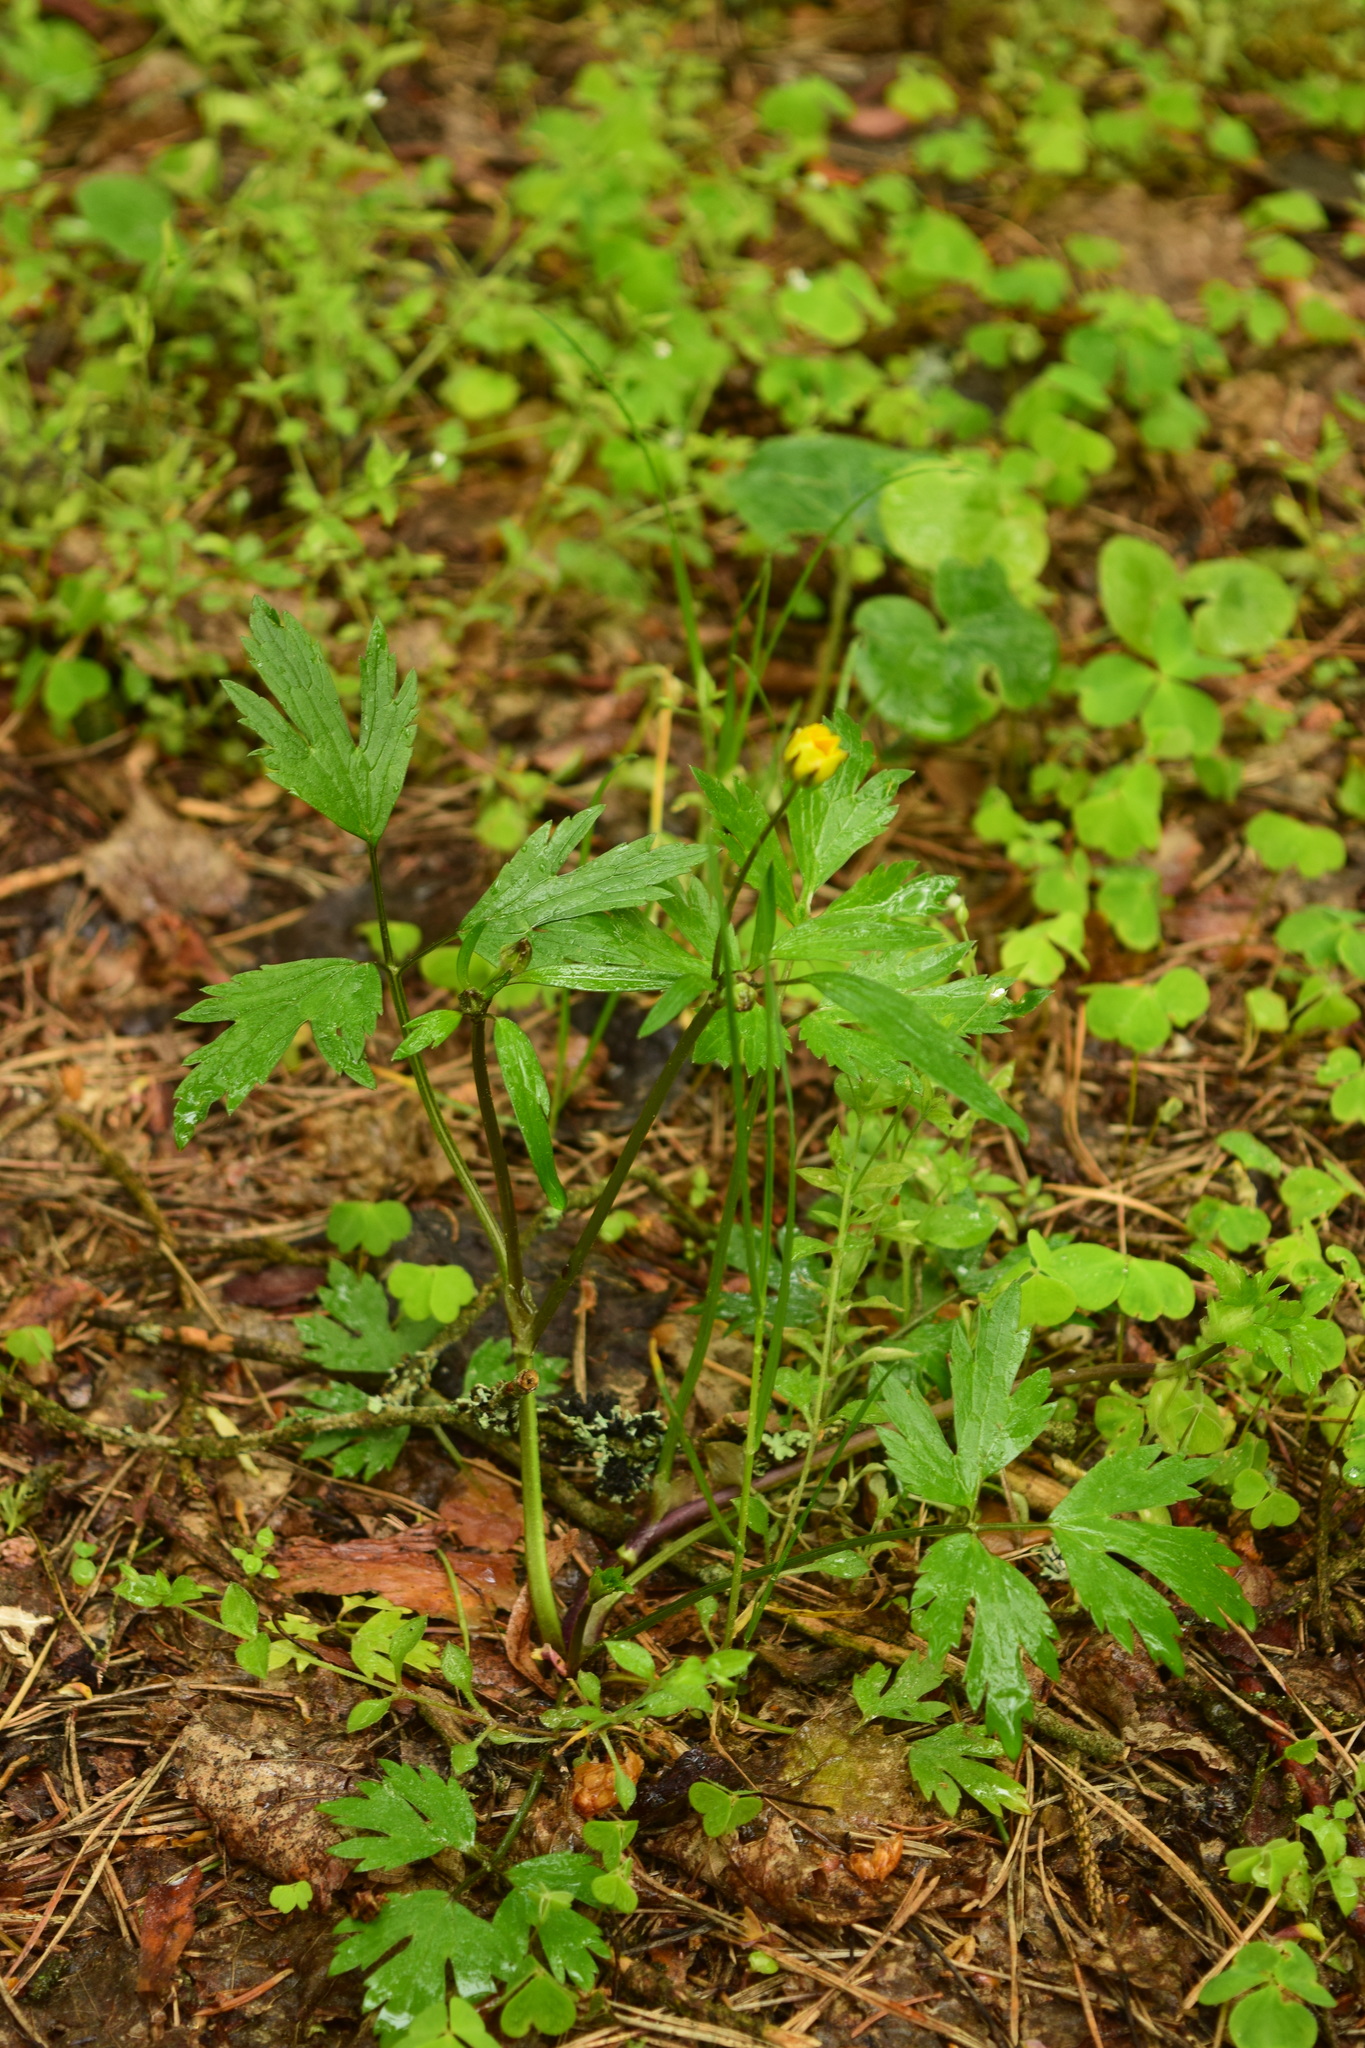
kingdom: Plantae
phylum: Tracheophyta
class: Magnoliopsida
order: Ranunculales
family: Ranunculaceae
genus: Ranunculus
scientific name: Ranunculus repens
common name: Creeping buttercup
